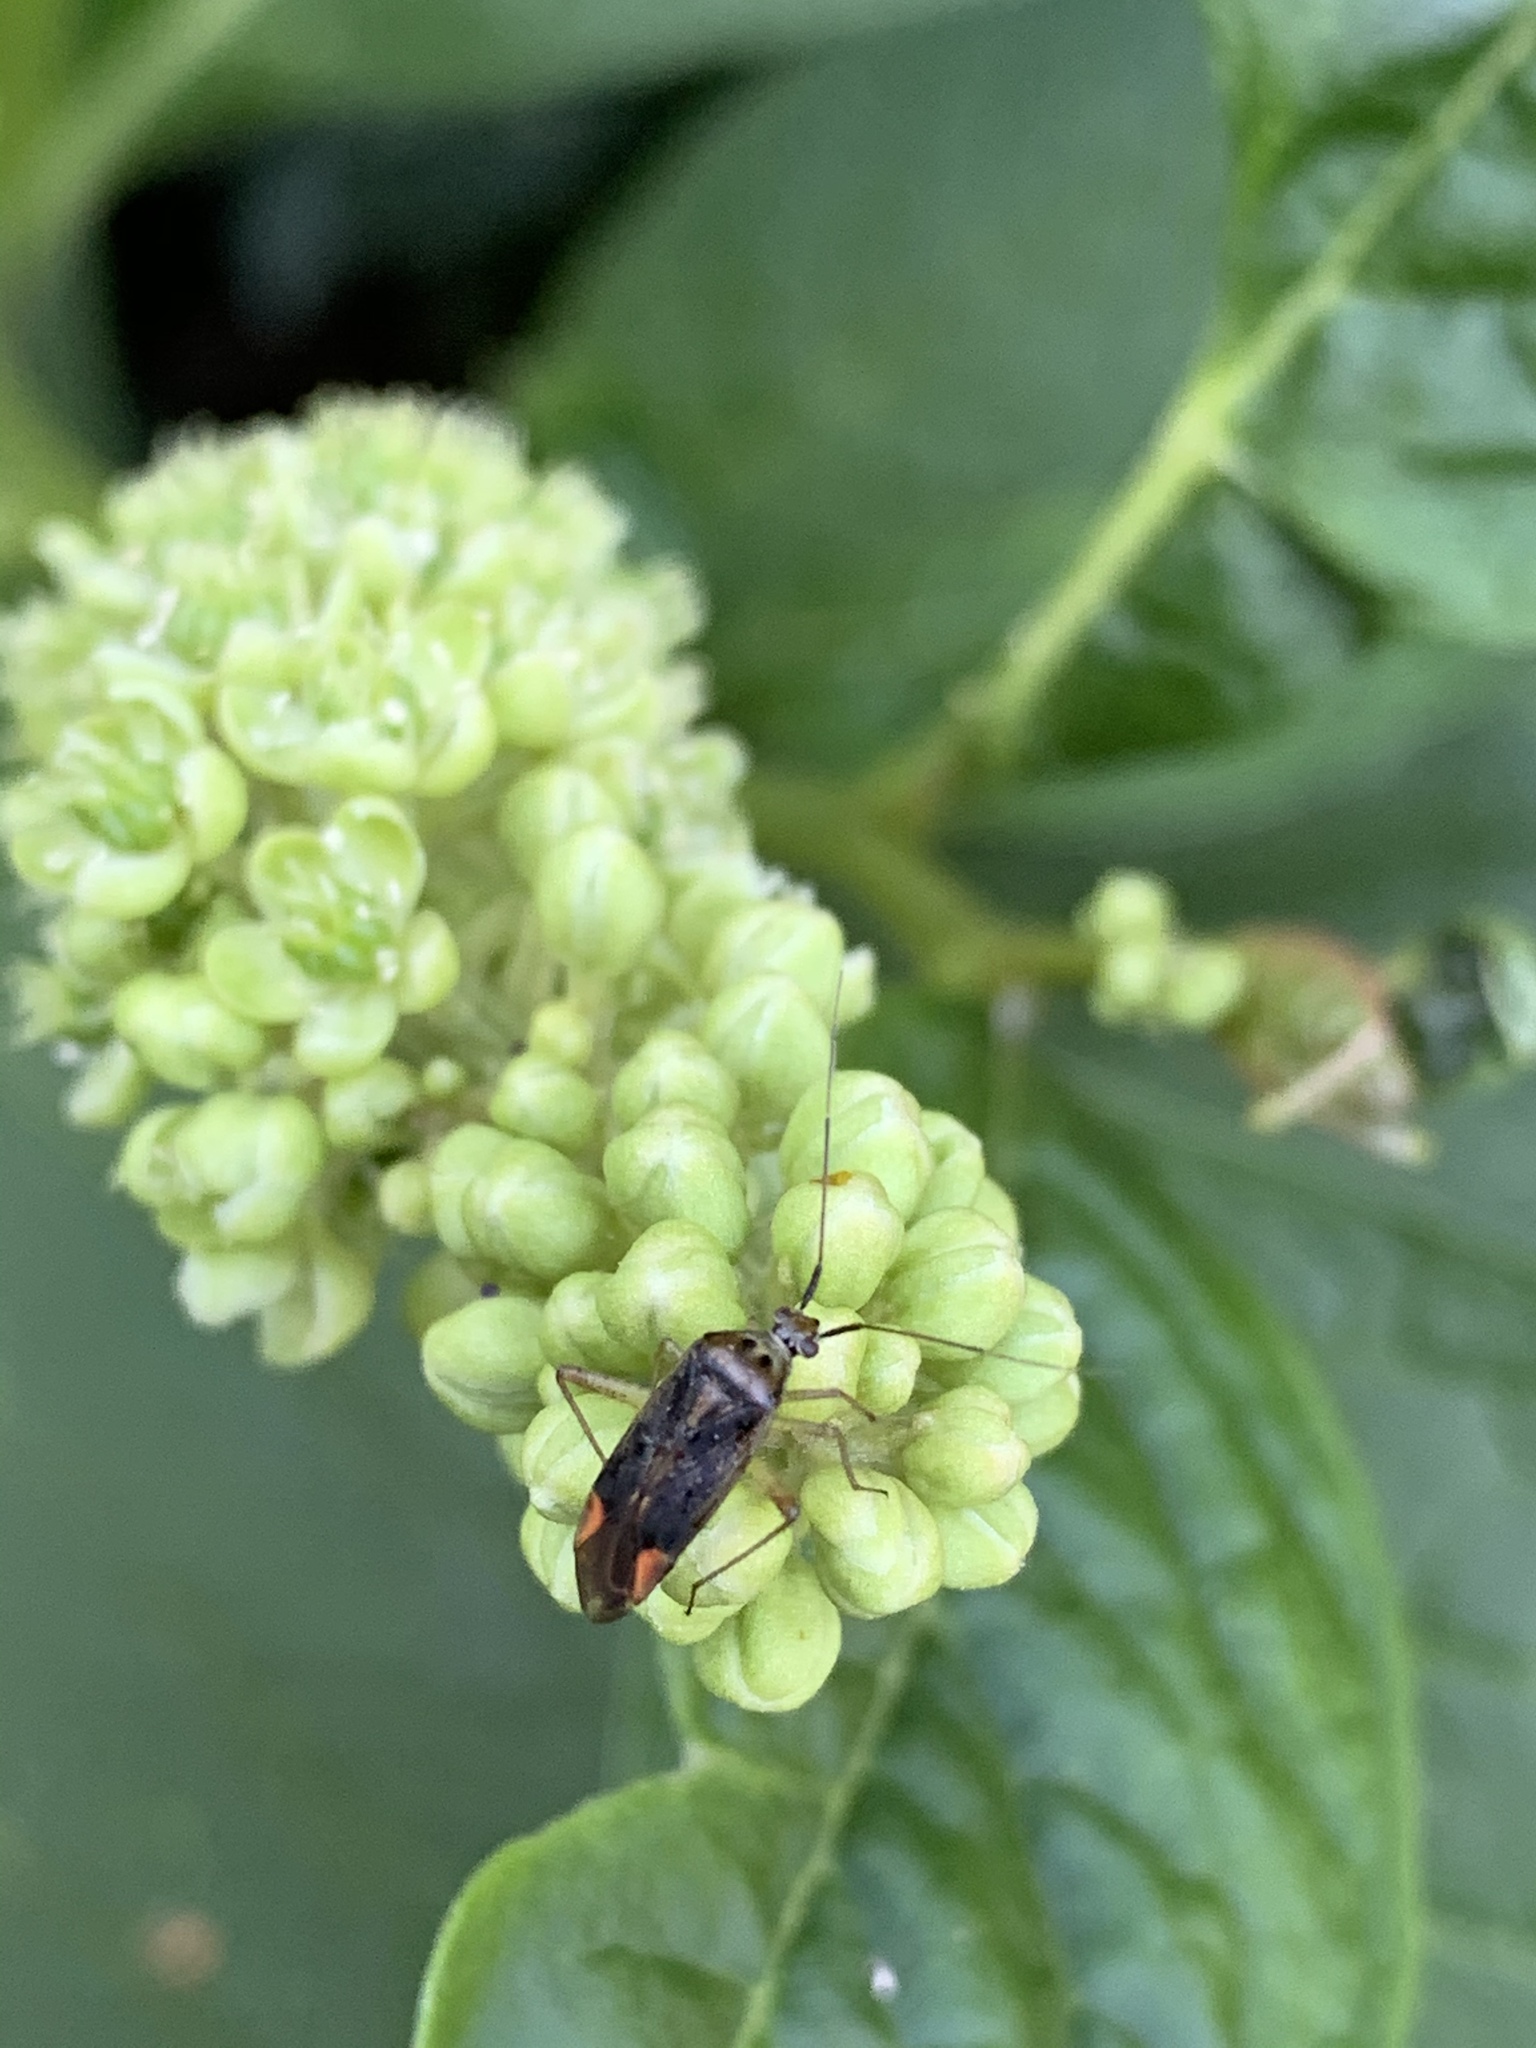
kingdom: Animalia
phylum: Arthropoda
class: Insecta
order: Hemiptera
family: Miridae
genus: Closterotomus
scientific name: Closterotomus trivialis
